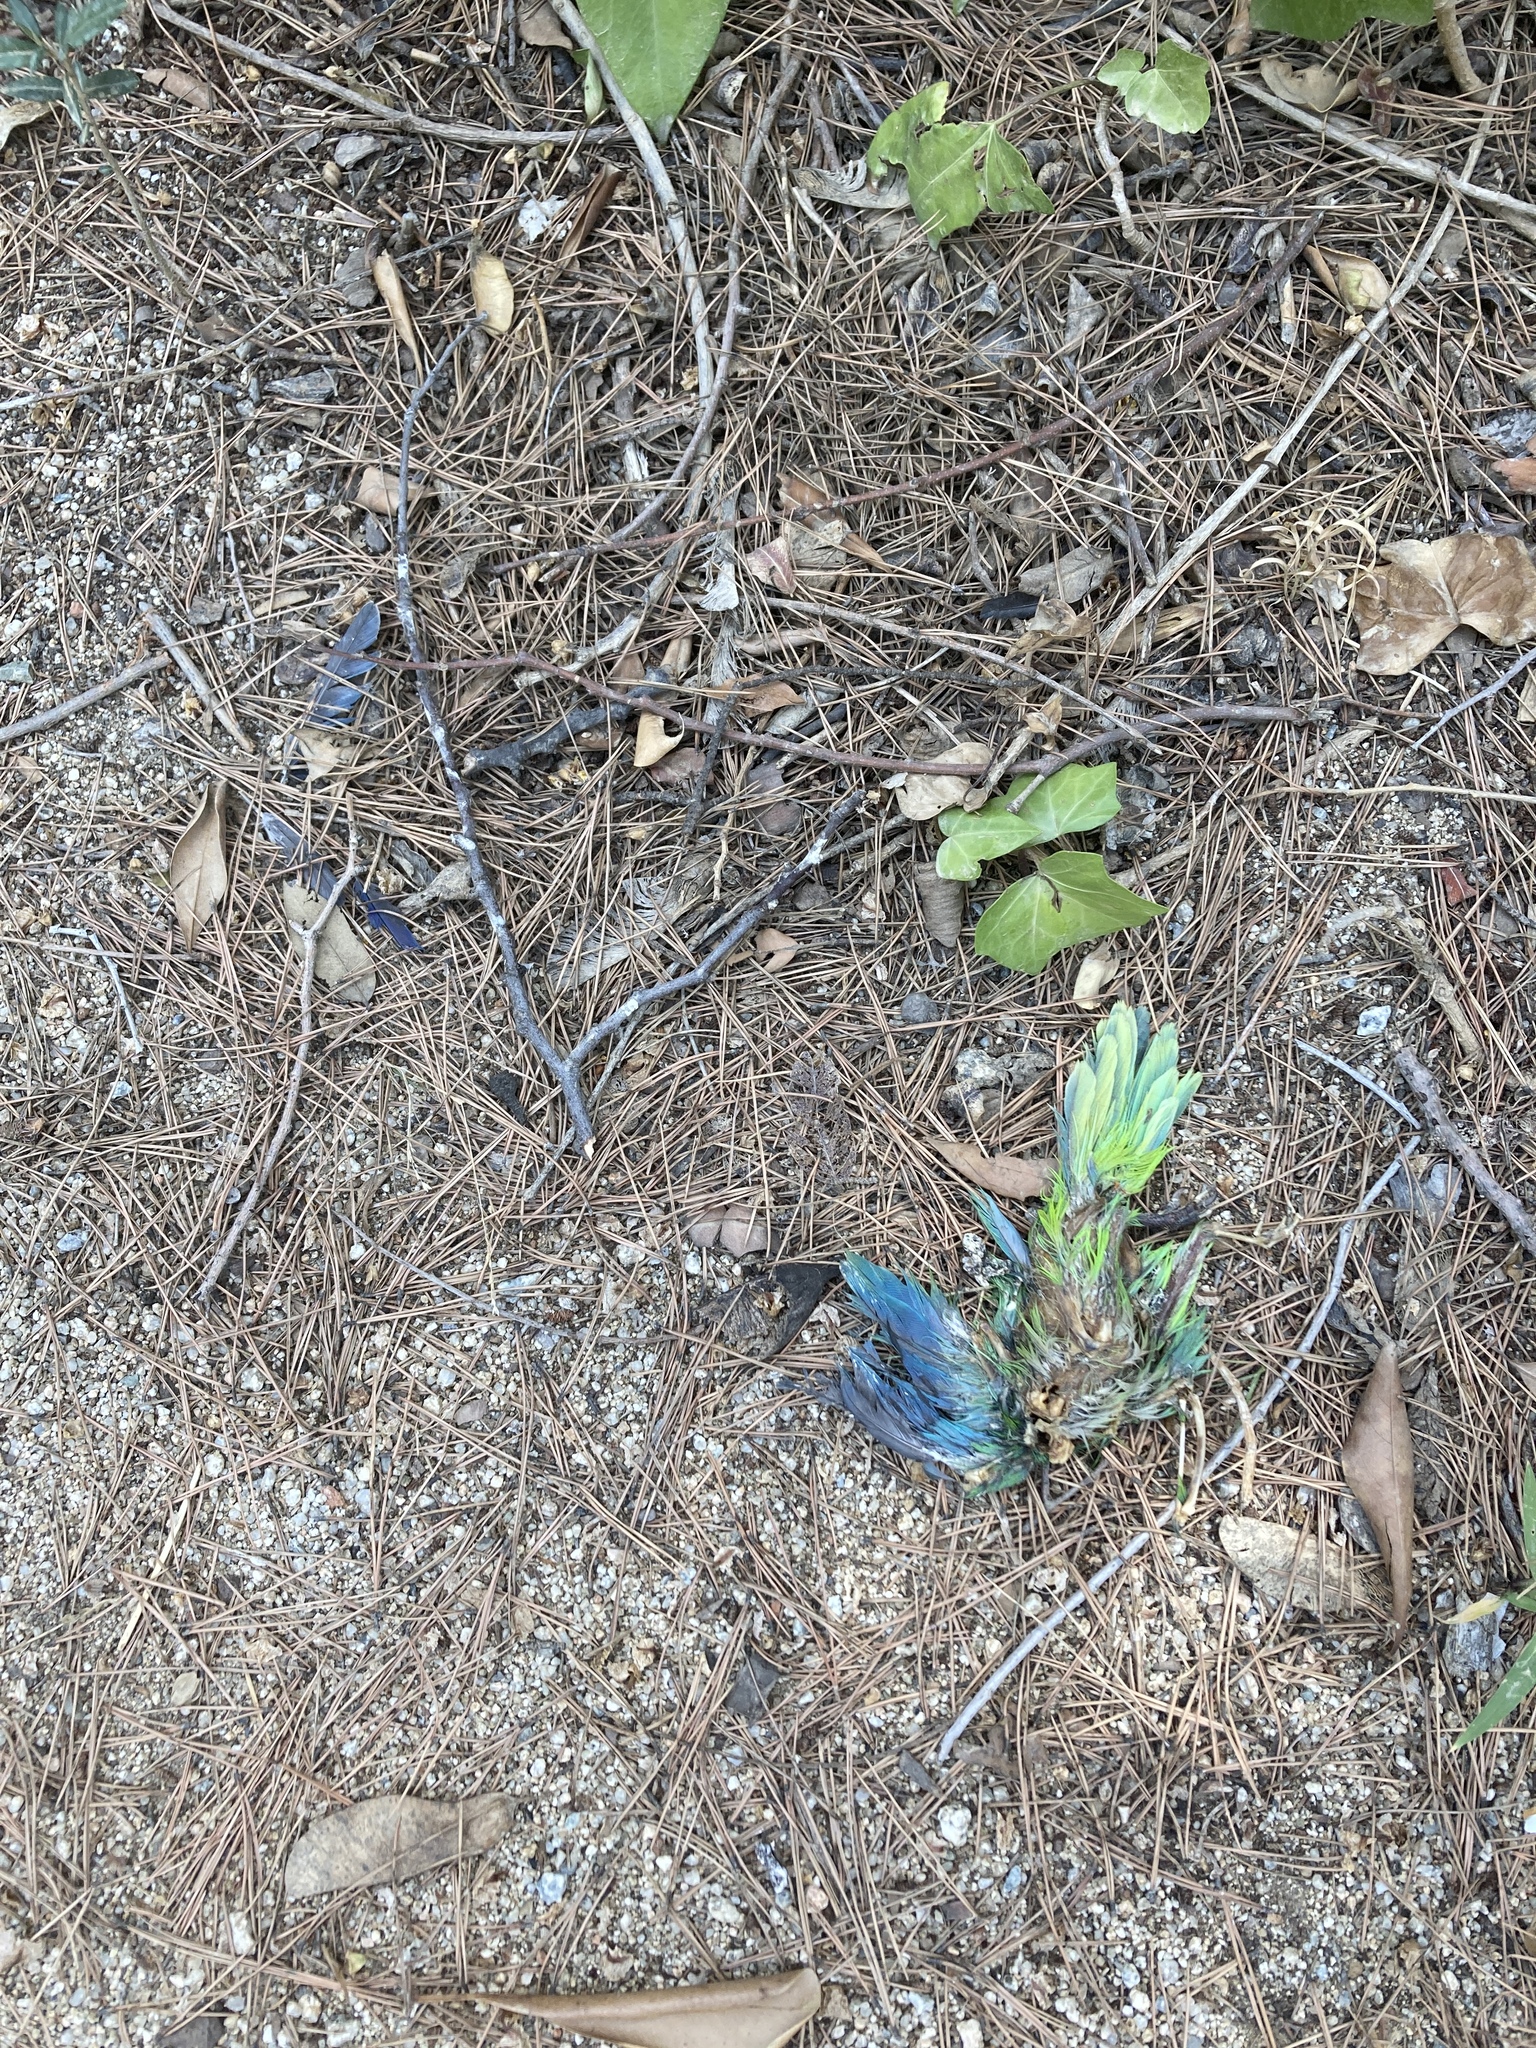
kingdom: Animalia
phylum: Chordata
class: Aves
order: Psittaciformes
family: Psittacidae
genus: Myiopsitta
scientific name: Myiopsitta monachus
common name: Monk parakeet
